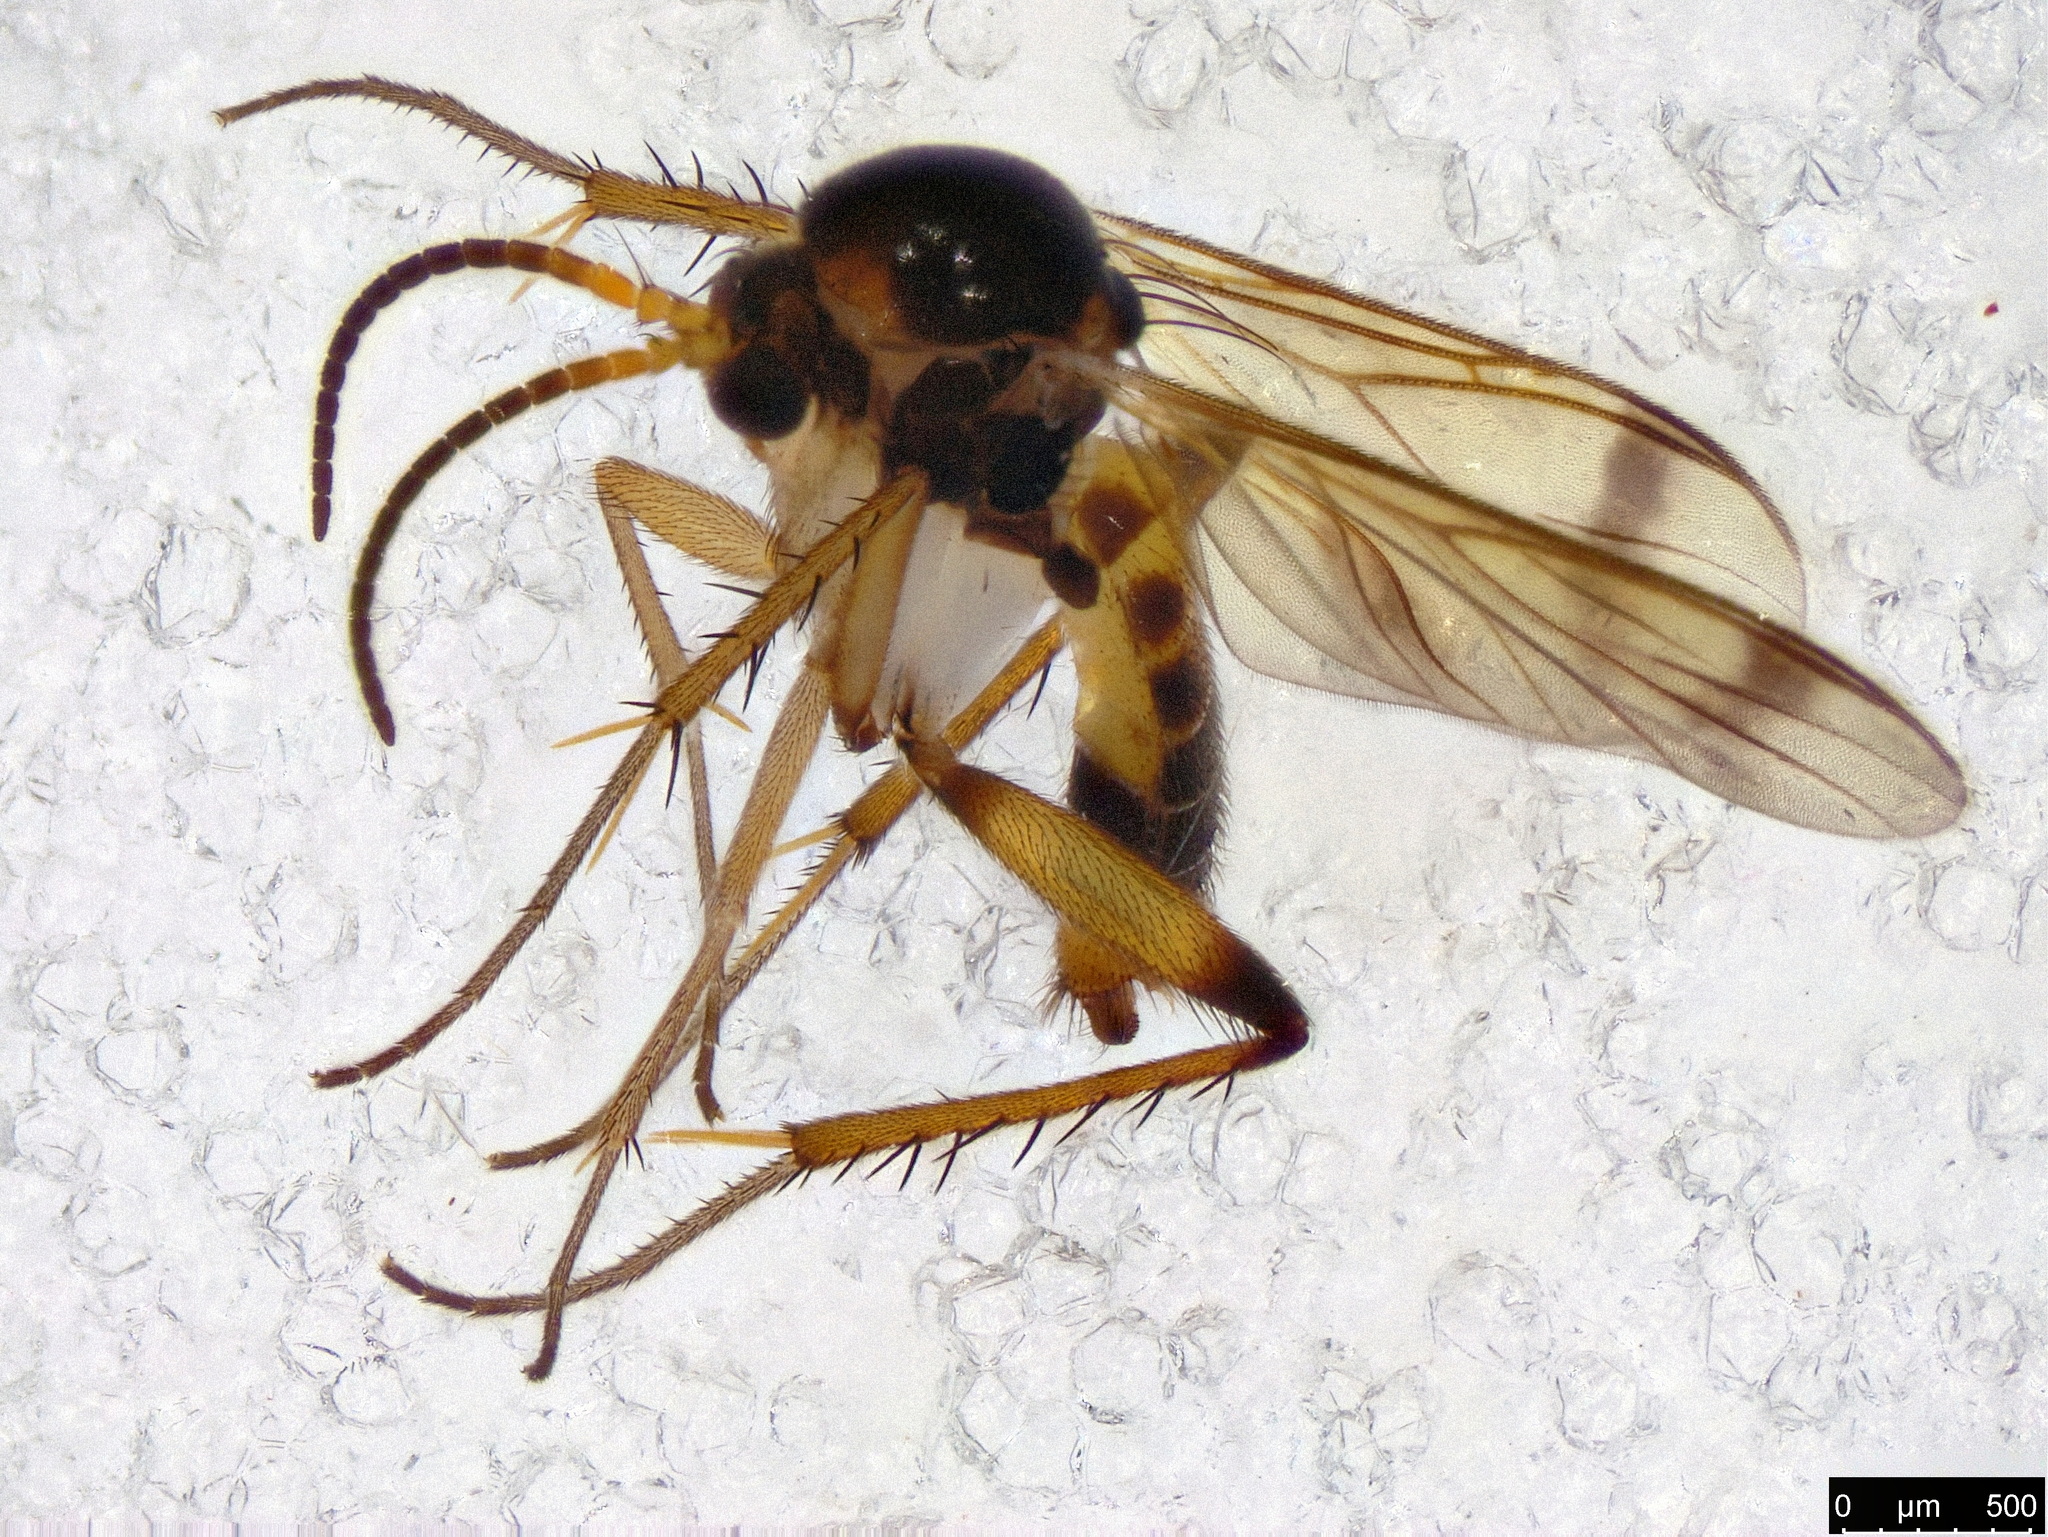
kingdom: Animalia
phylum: Arthropoda
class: Insecta
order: Diptera
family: Mycetophilidae
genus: Ateleia
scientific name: Ateleia spadicithorax
